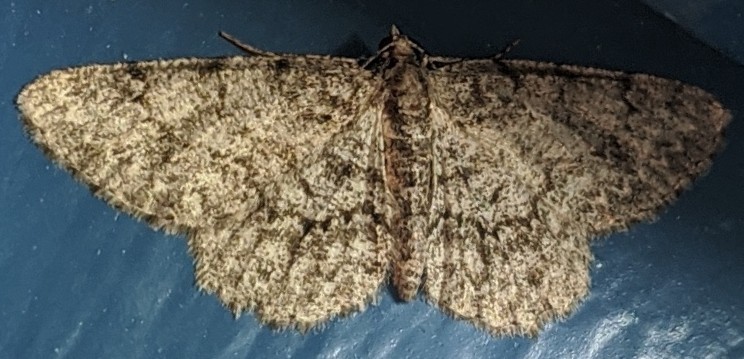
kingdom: Animalia
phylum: Arthropoda
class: Insecta
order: Lepidoptera
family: Geometridae
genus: Protoboarmia
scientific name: Protoboarmia porcelaria
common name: Porcelain gray
